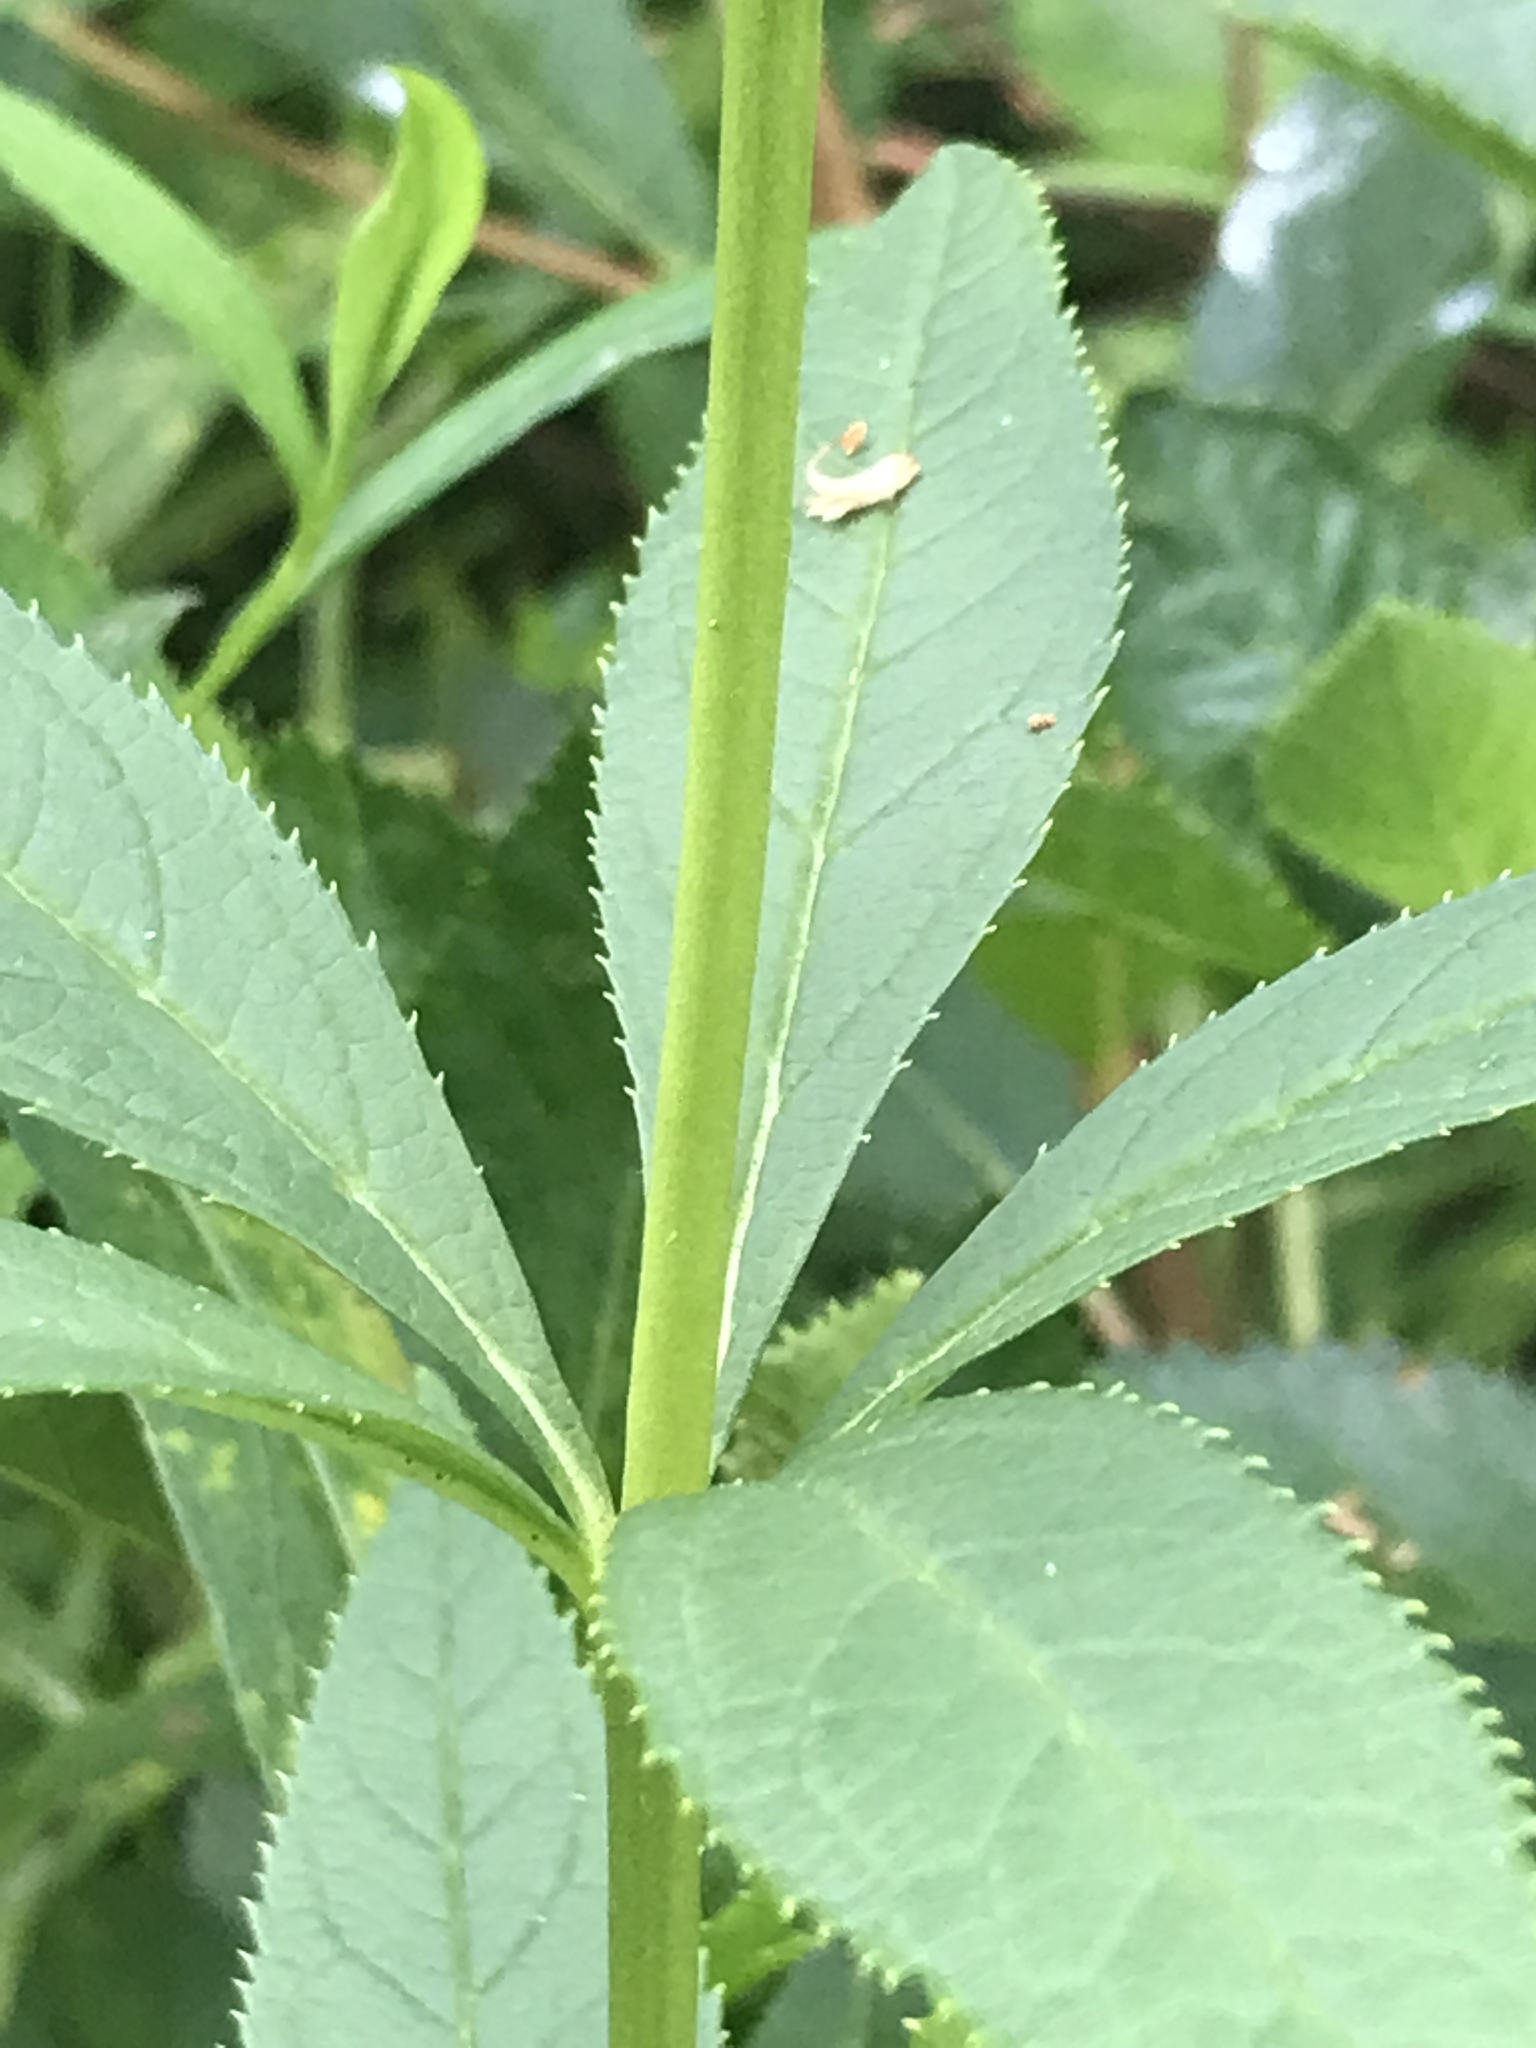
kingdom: Plantae
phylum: Tracheophyta
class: Magnoliopsida
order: Lamiales
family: Plantaginaceae
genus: Veronicastrum
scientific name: Veronicastrum virginicum
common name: Blackroot
